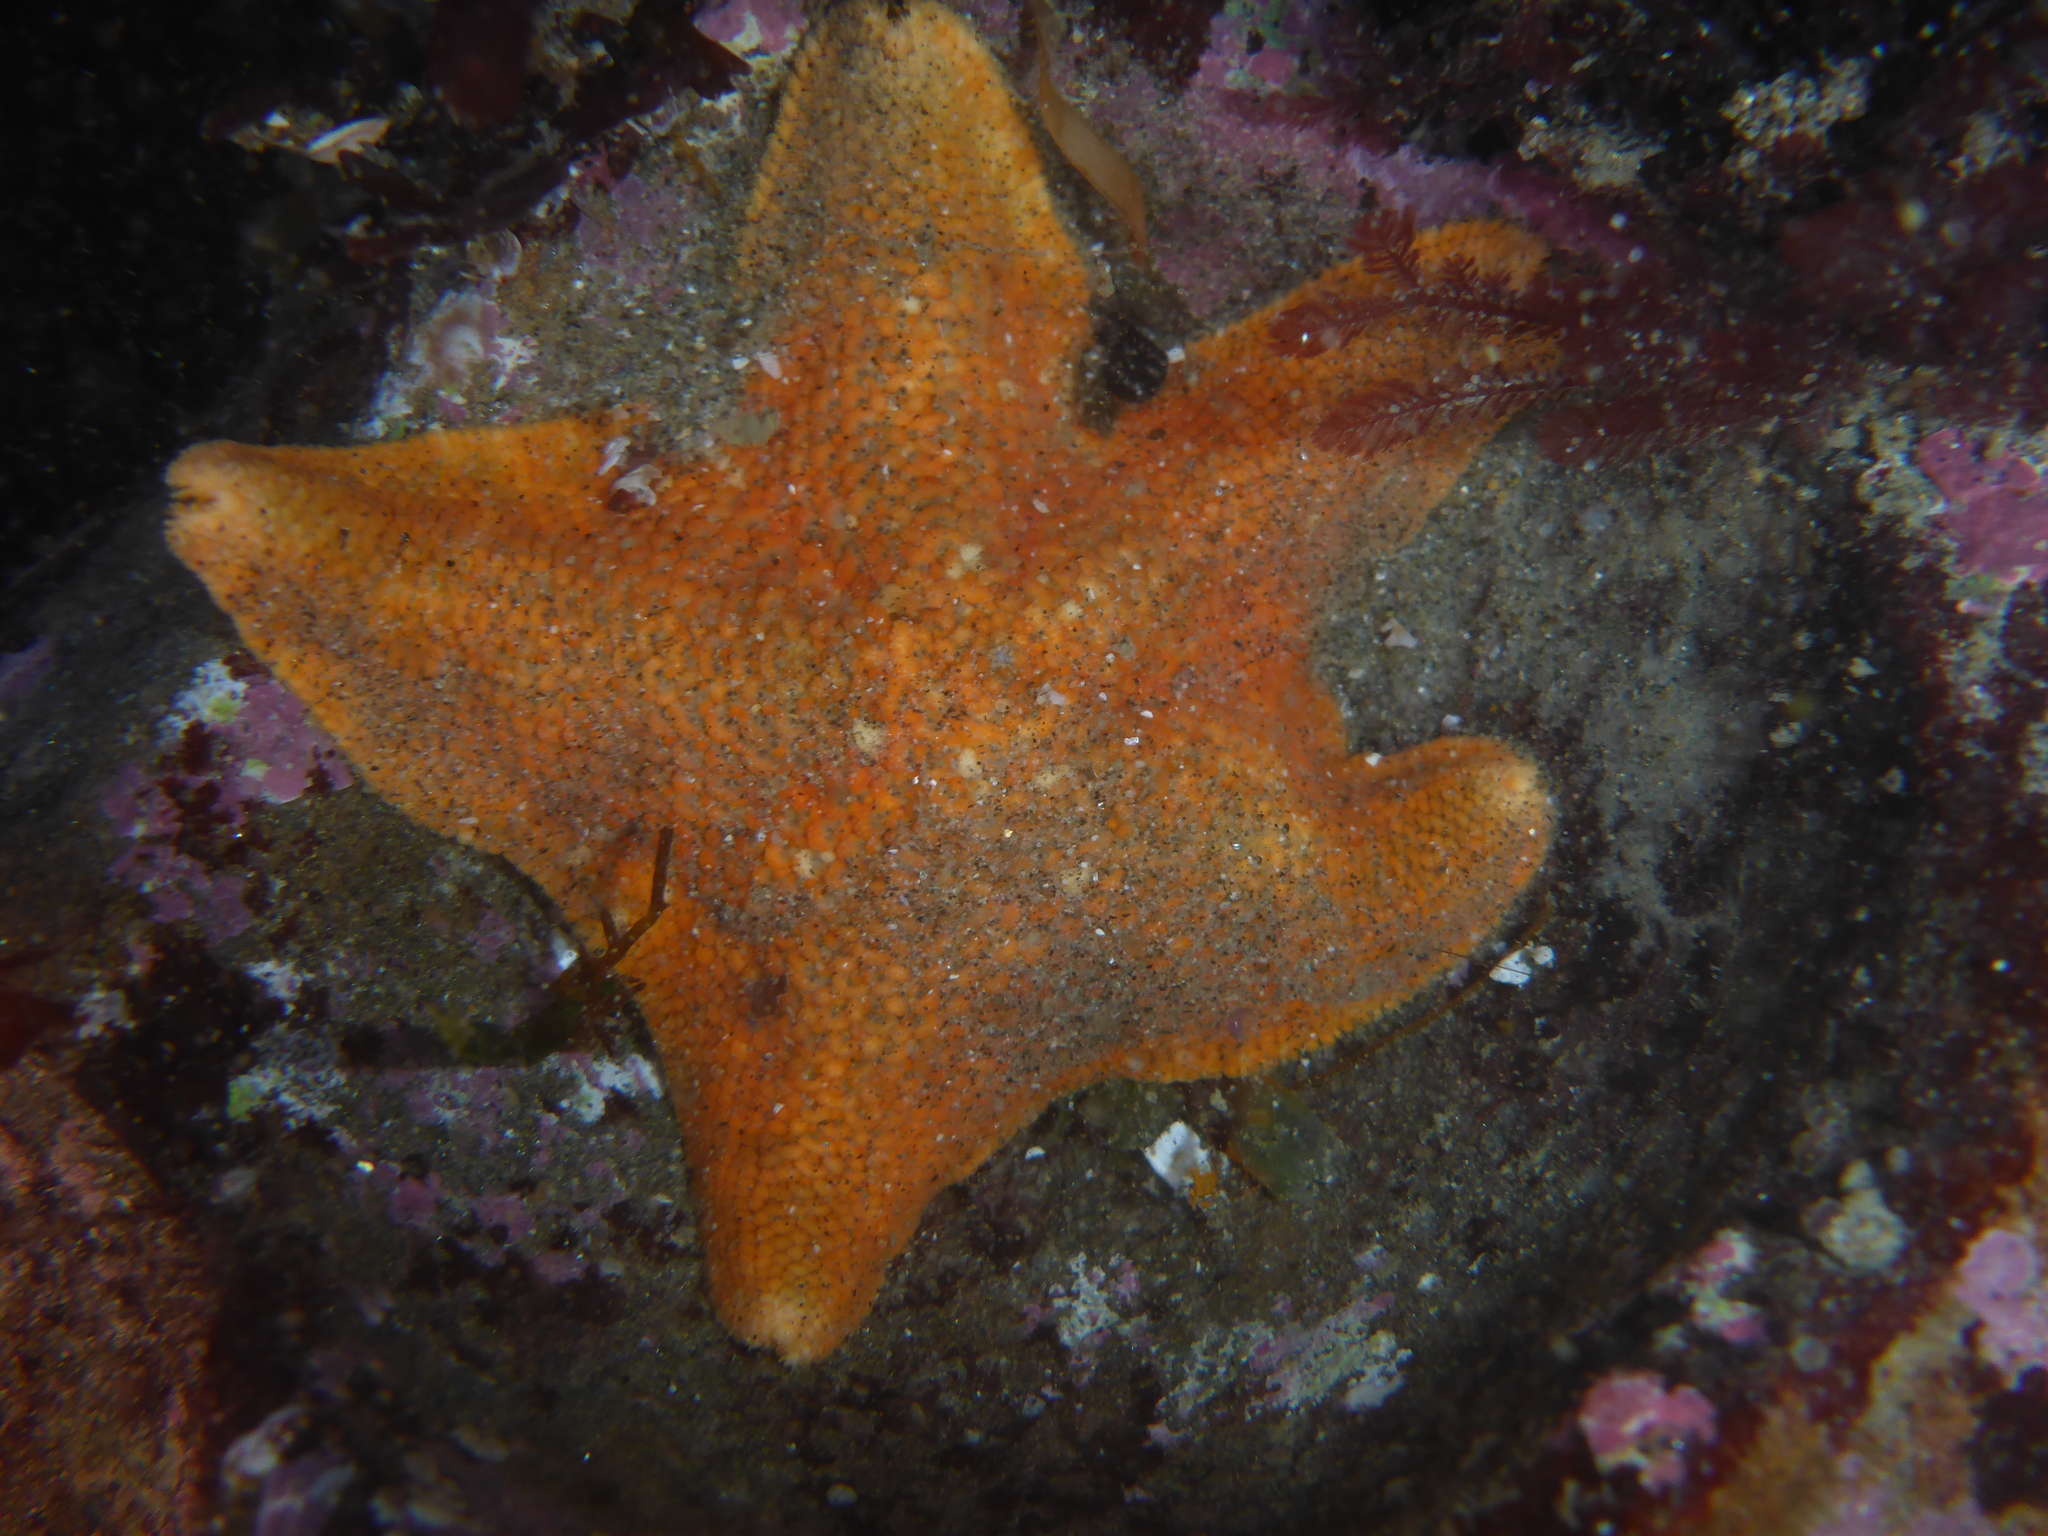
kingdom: Animalia
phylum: Echinodermata
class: Asteroidea
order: Valvatida
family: Asterinidae
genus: Patiria
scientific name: Patiria miniata
